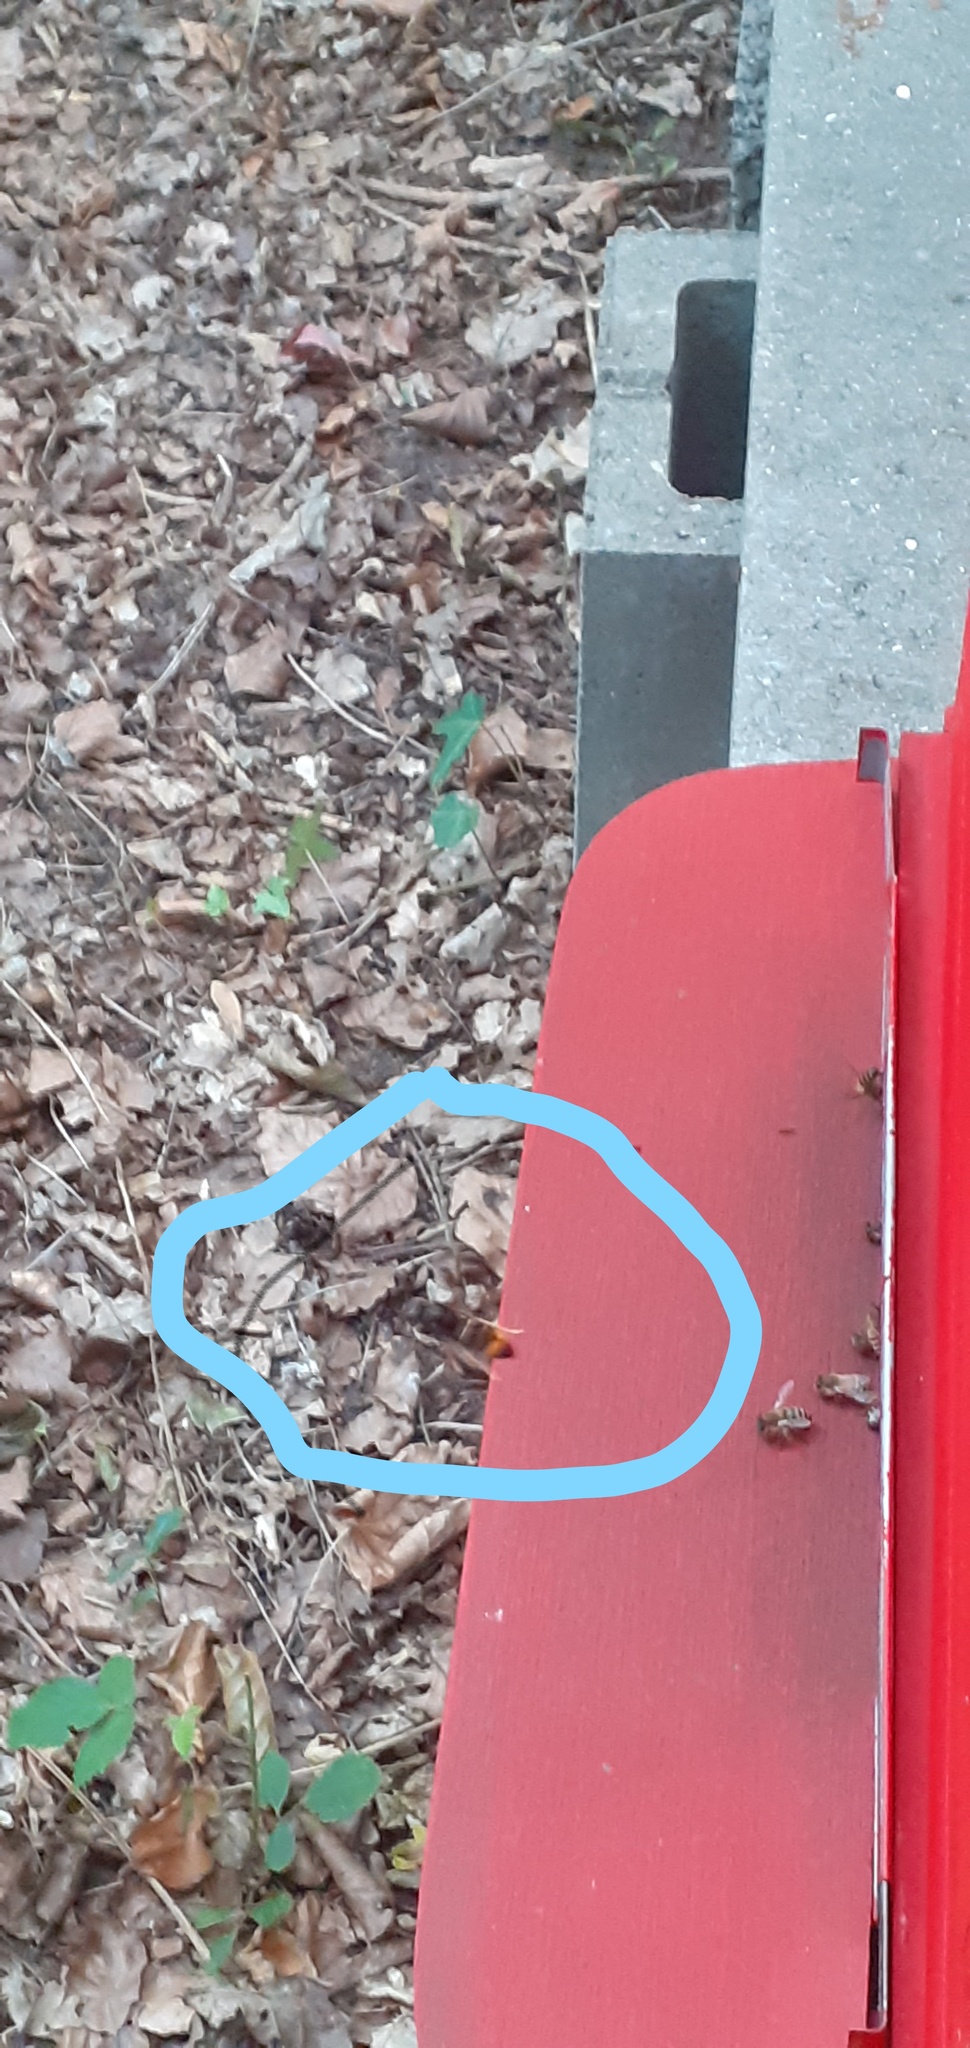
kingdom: Animalia
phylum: Arthropoda
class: Insecta
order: Hymenoptera
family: Vespidae
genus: Vespa
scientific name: Vespa velutina
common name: Asian hornet
